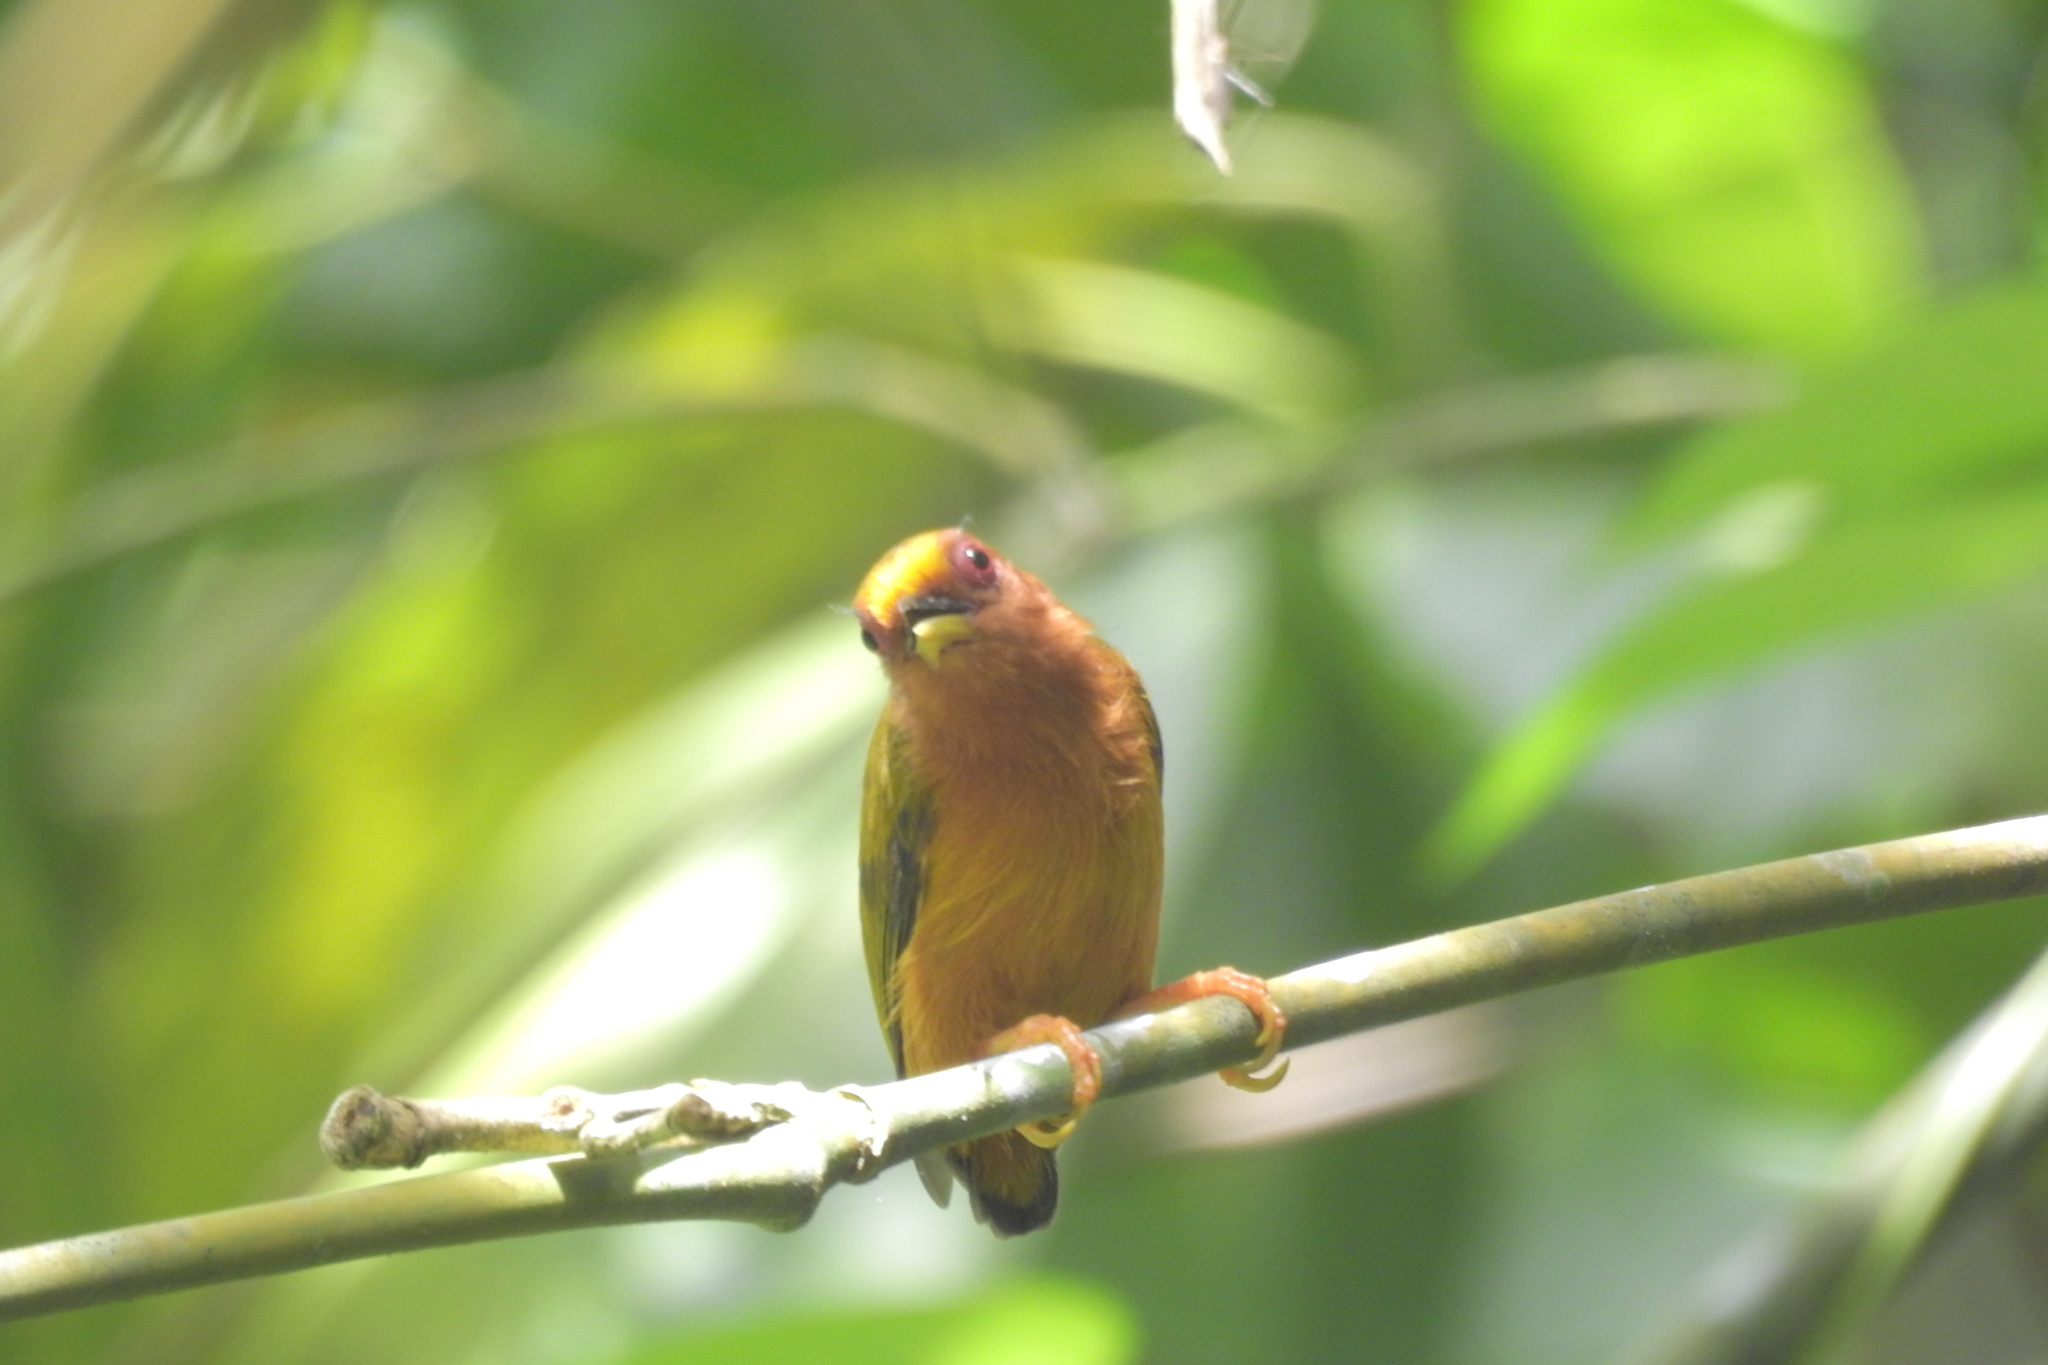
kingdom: Animalia
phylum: Chordata
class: Aves
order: Piciformes
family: Picidae
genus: Sasia
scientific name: Sasia abnormis
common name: Rufous piculet
